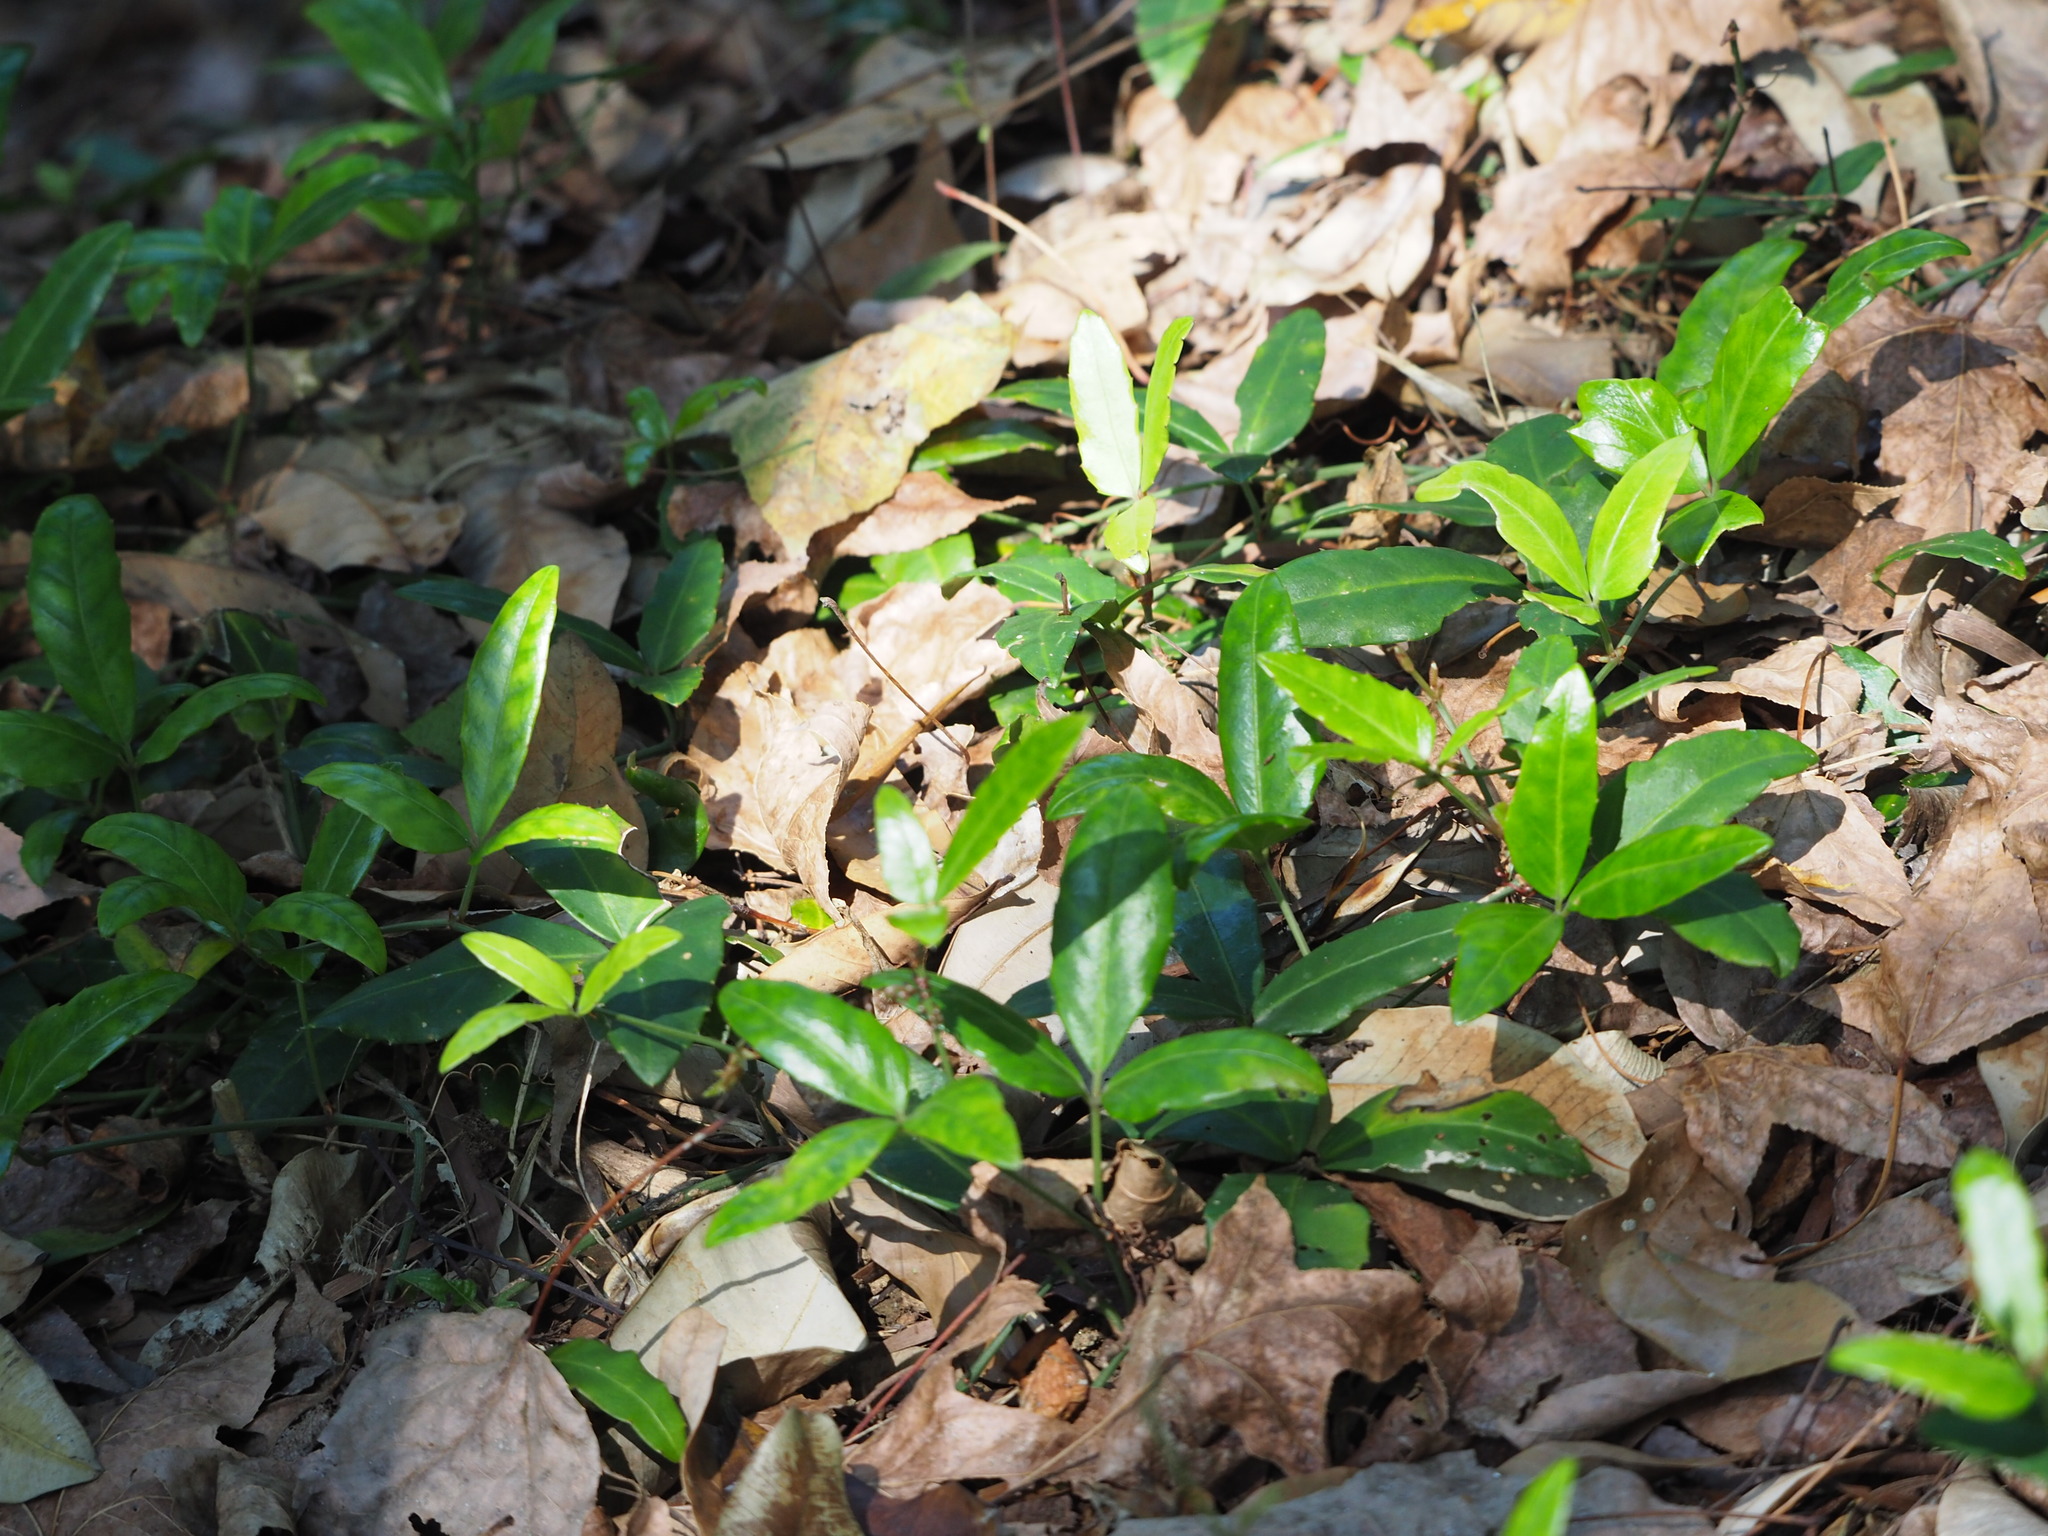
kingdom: Plantae
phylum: Tracheophyta
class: Magnoliopsida
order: Vitales
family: Vitaceae
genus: Tetrastigma
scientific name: Tetrastigma formosanum
